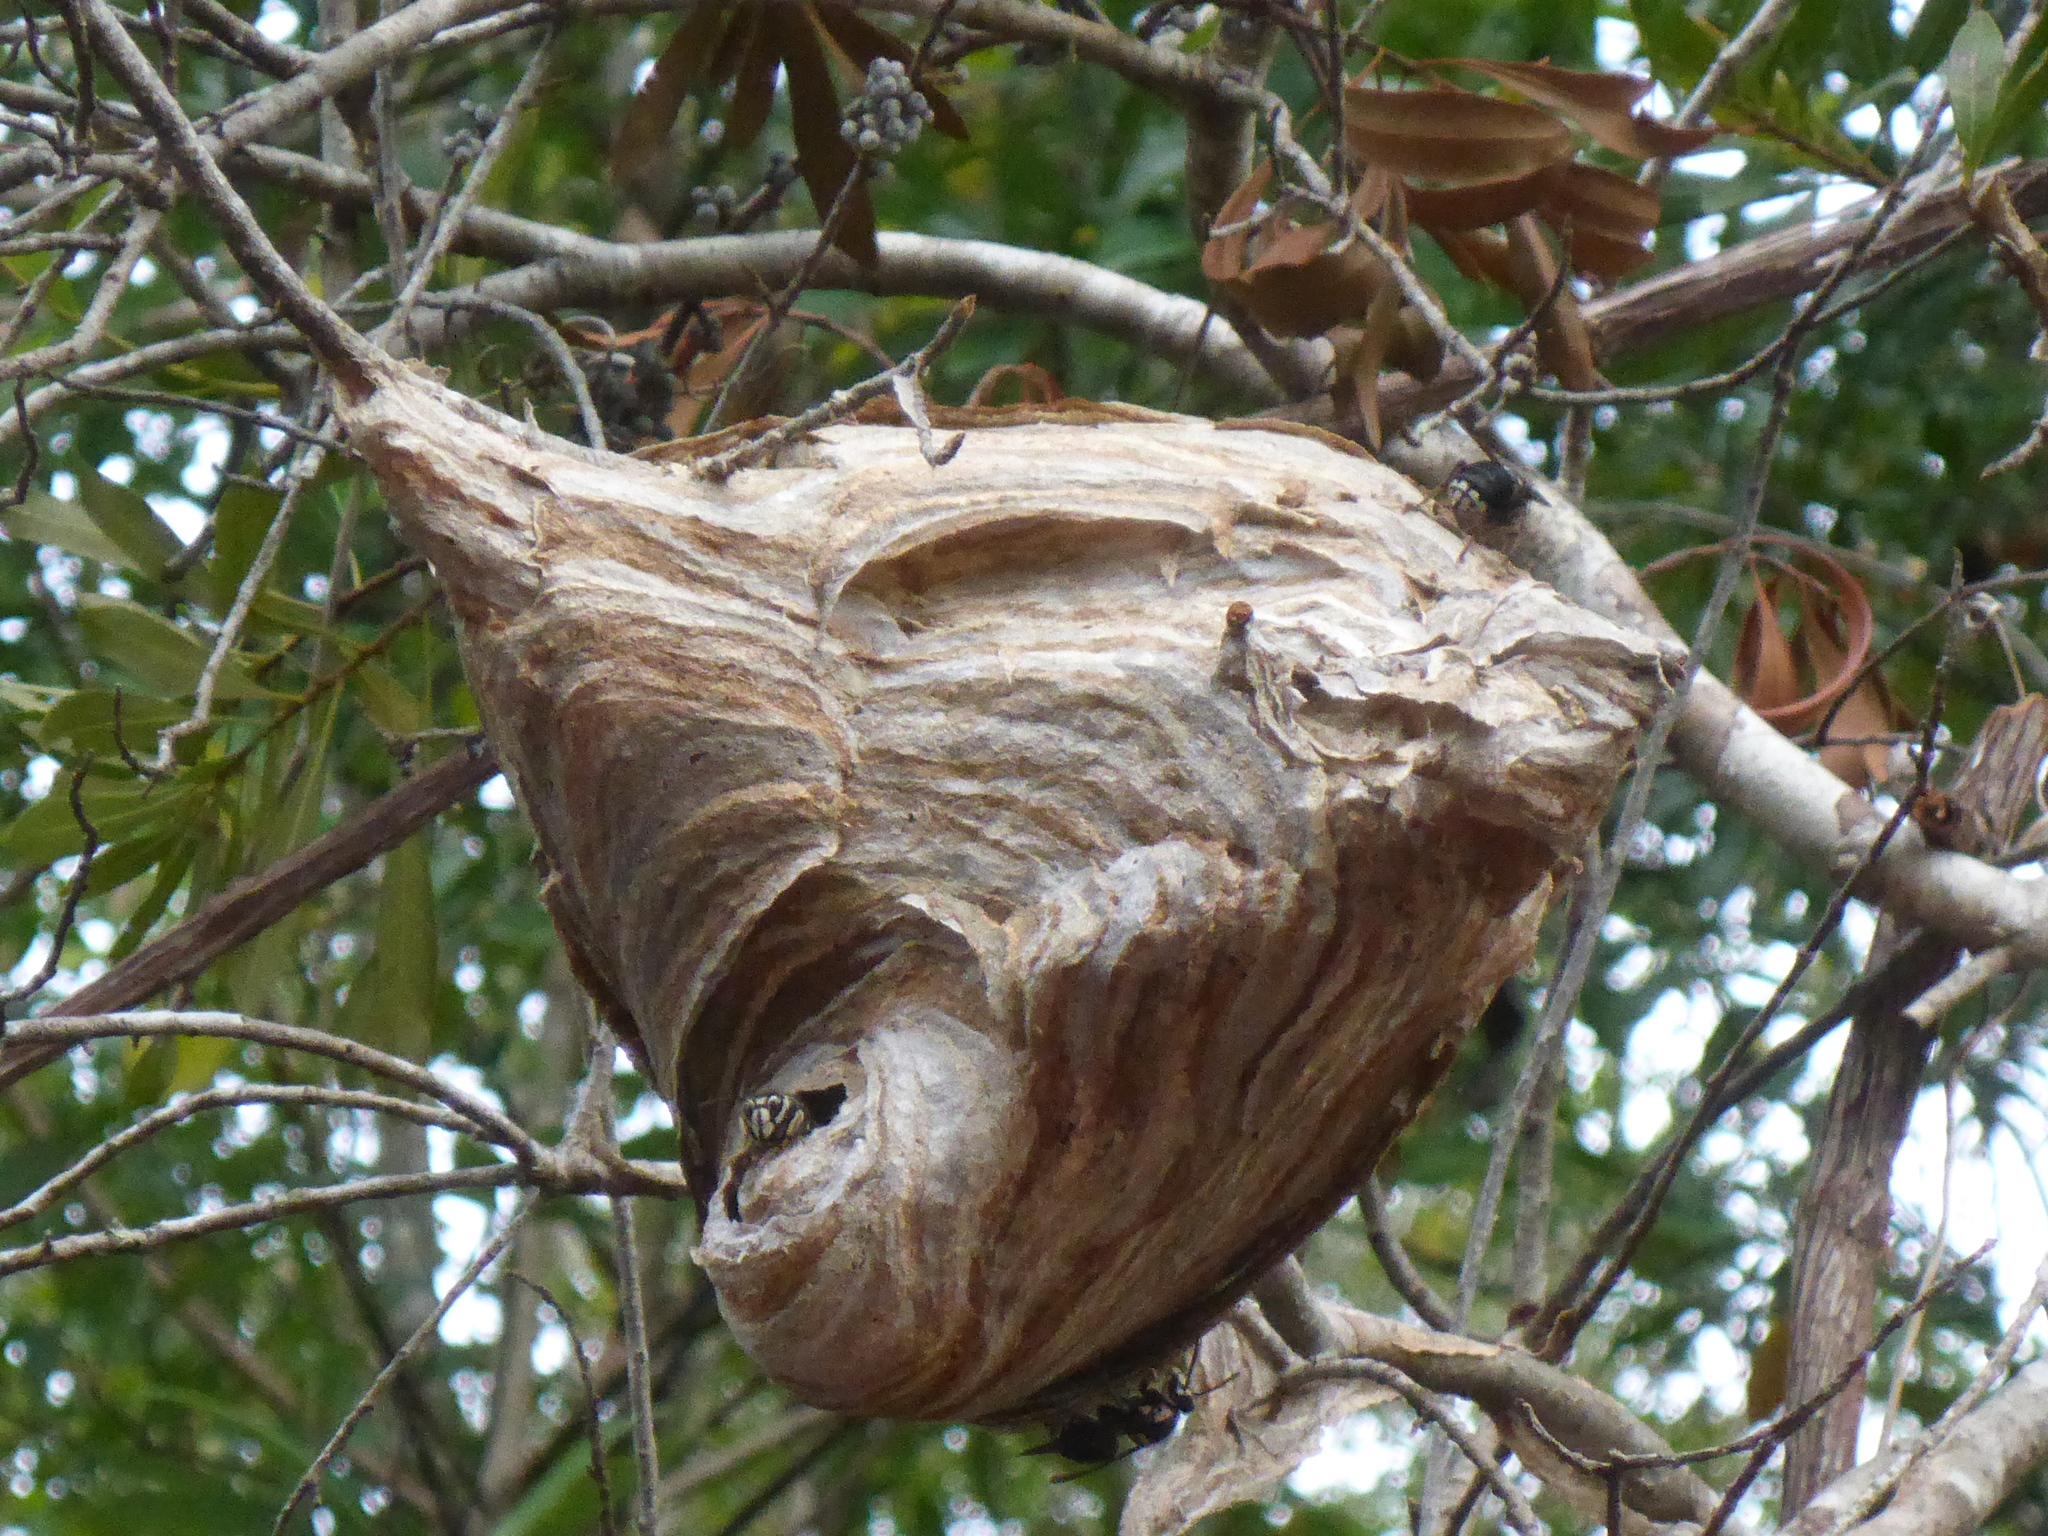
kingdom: Animalia
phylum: Arthropoda
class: Insecta
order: Hymenoptera
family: Vespidae
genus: Dolichovespula
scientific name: Dolichovespula maculata
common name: Bald-faced hornet
